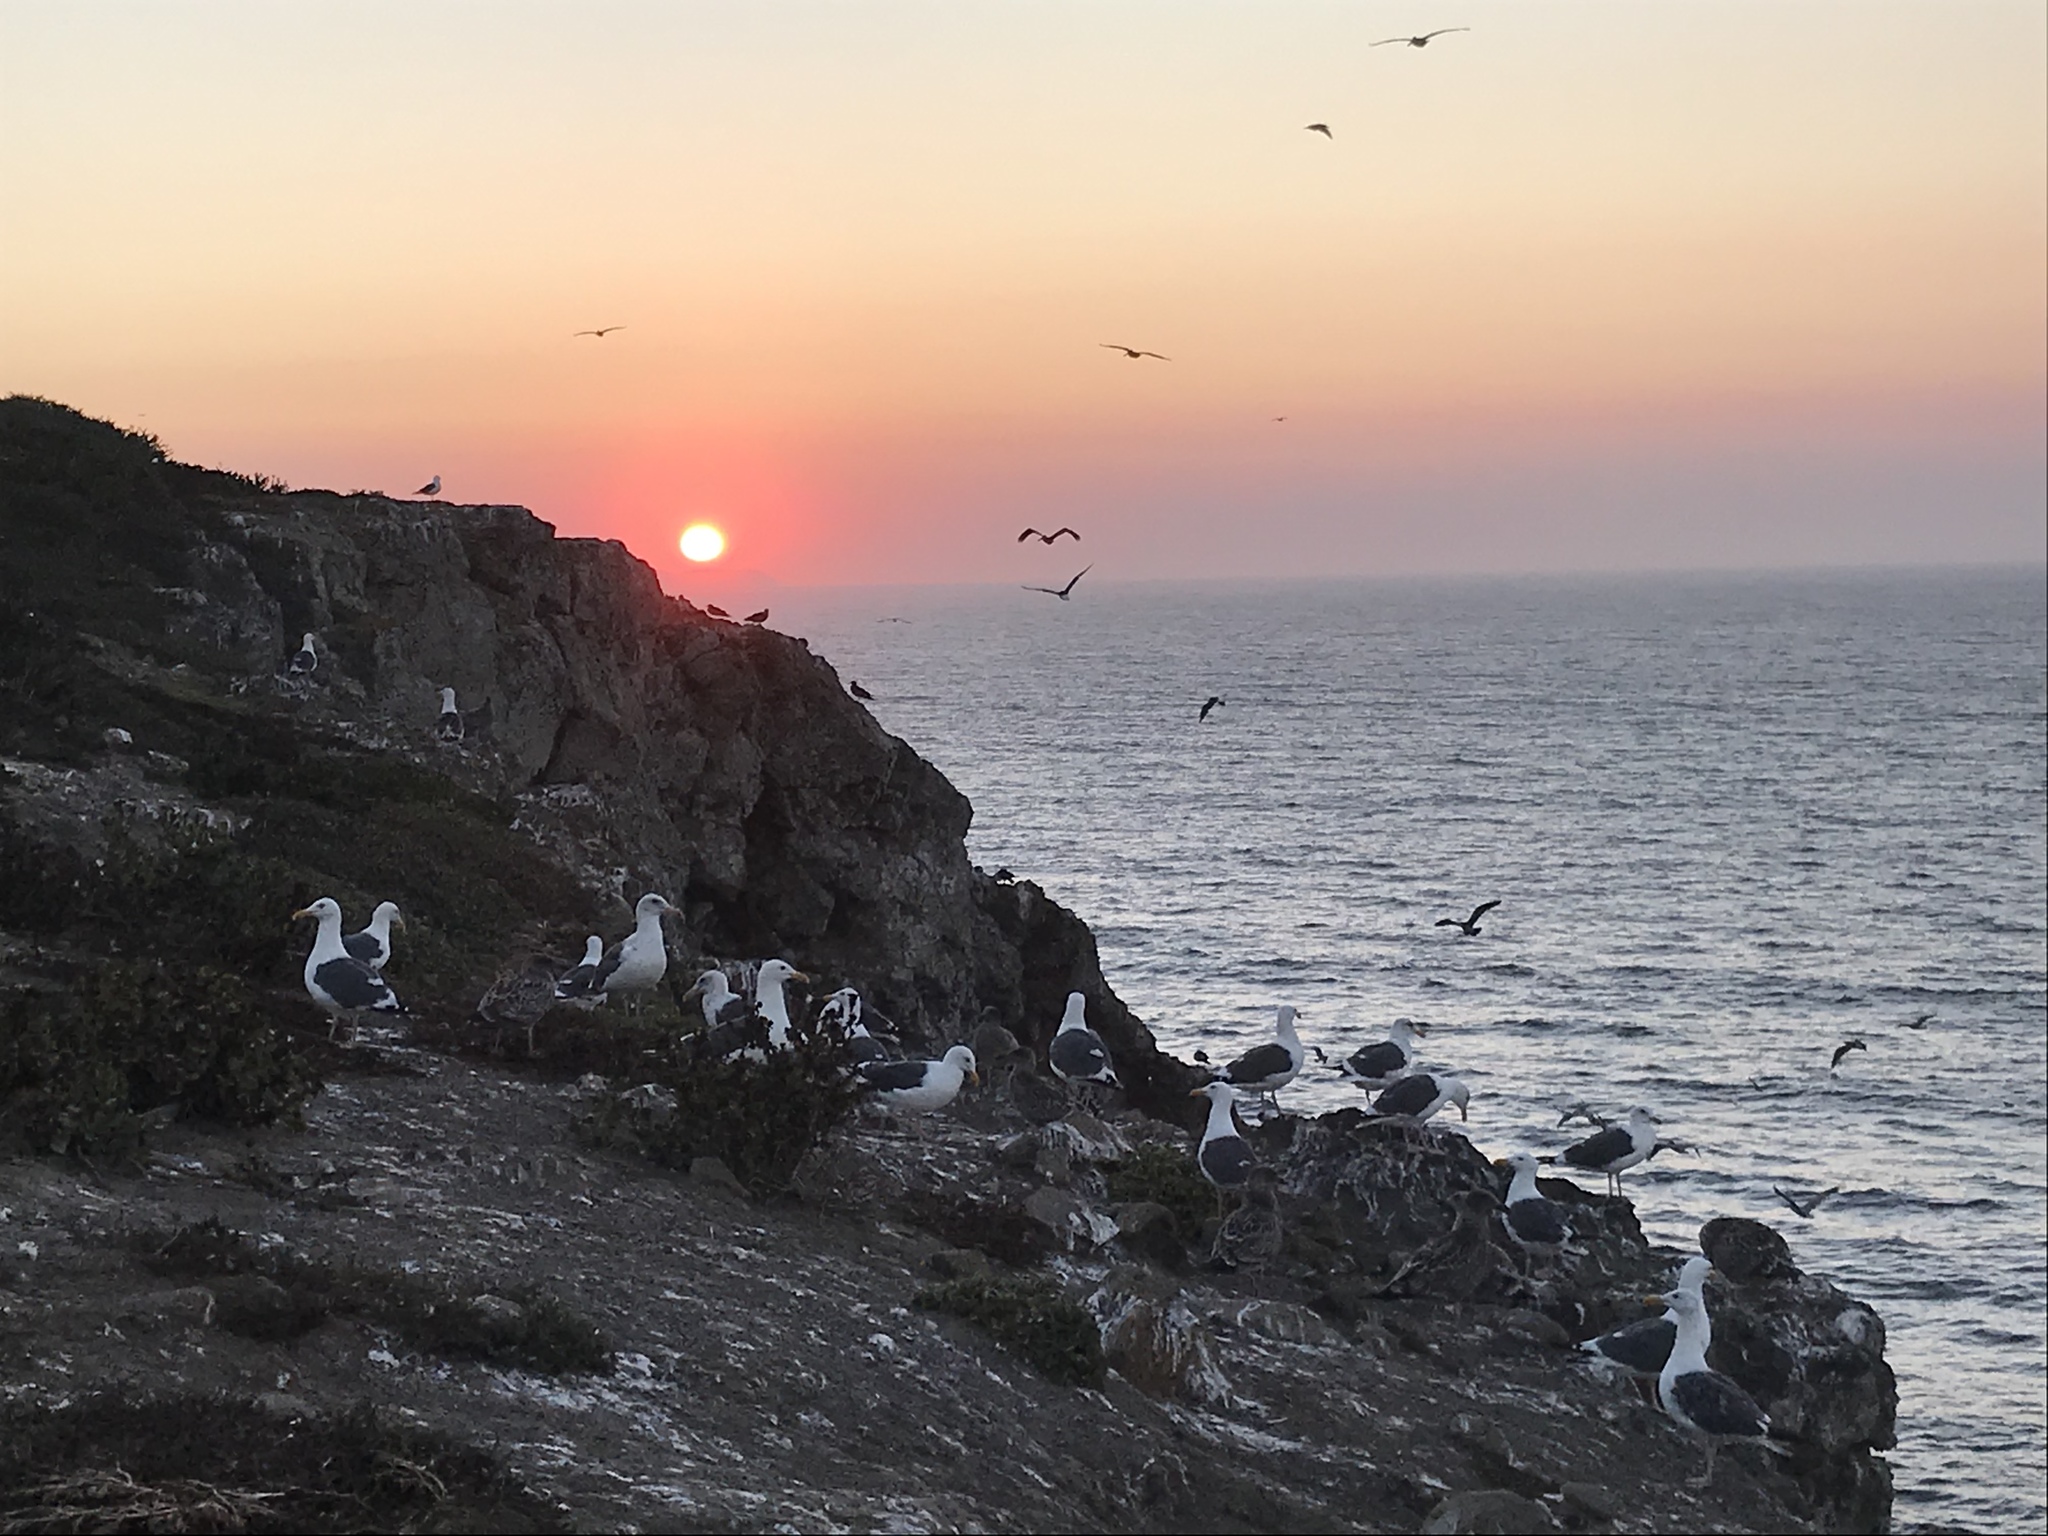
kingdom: Animalia
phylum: Chordata
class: Aves
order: Charadriiformes
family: Laridae
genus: Larus
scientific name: Larus occidentalis
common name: Western gull
